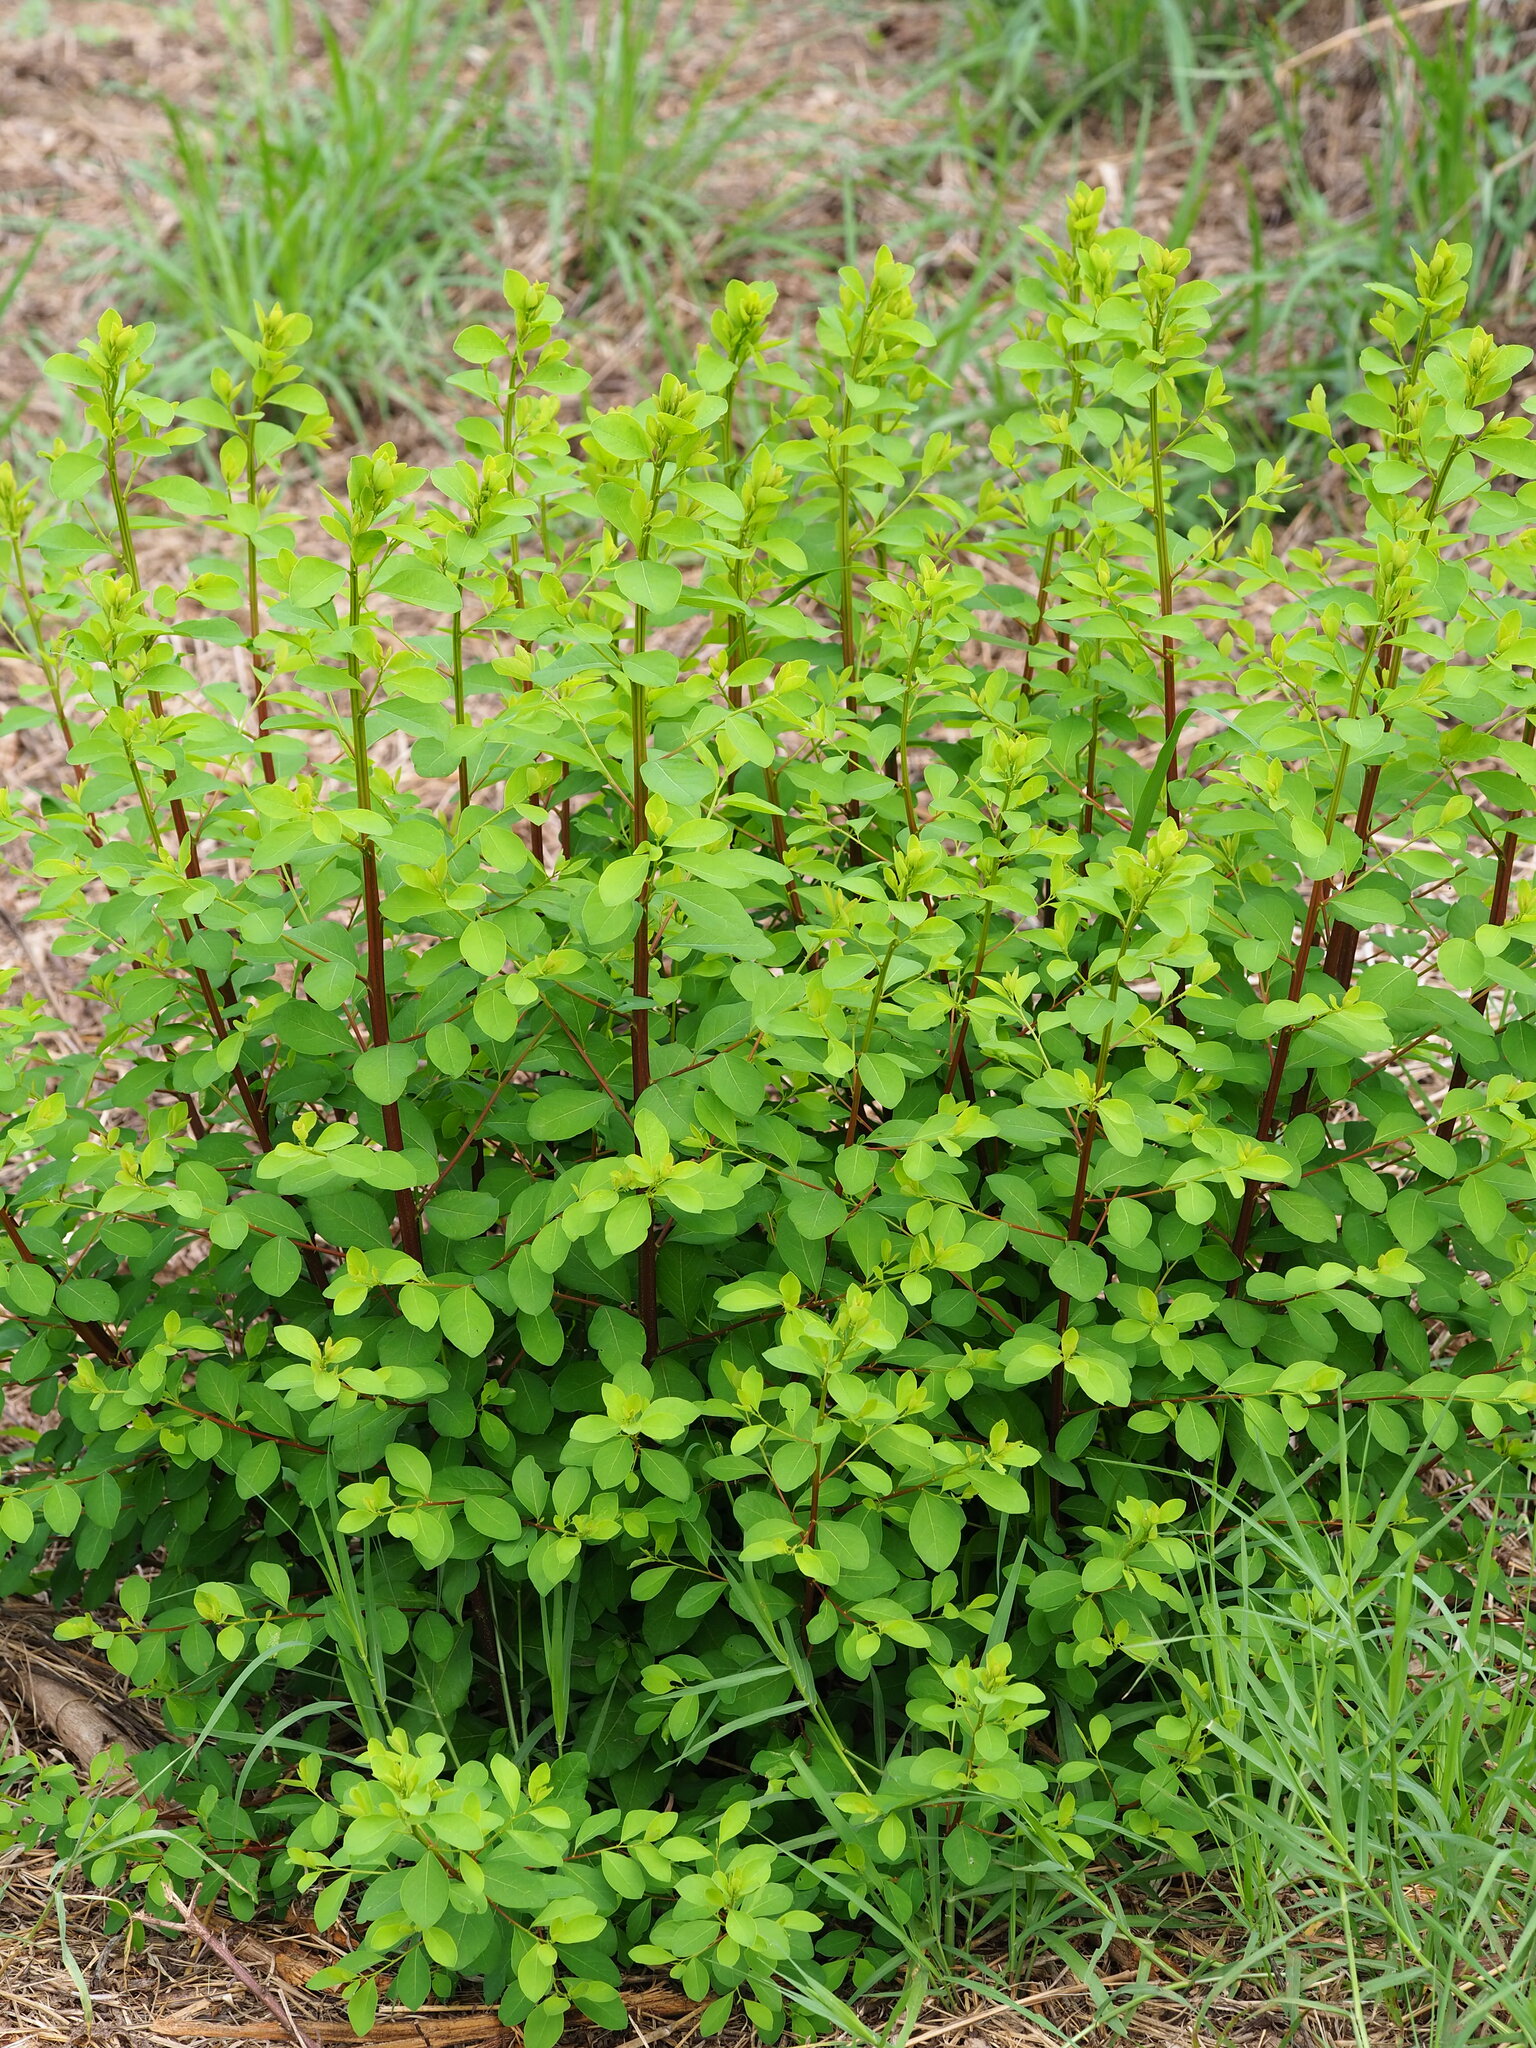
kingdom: Plantae
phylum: Tracheophyta
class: Magnoliopsida
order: Malpighiales
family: Phyllanthaceae
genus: Flueggea
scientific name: Flueggea virosa
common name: Common bushweed
